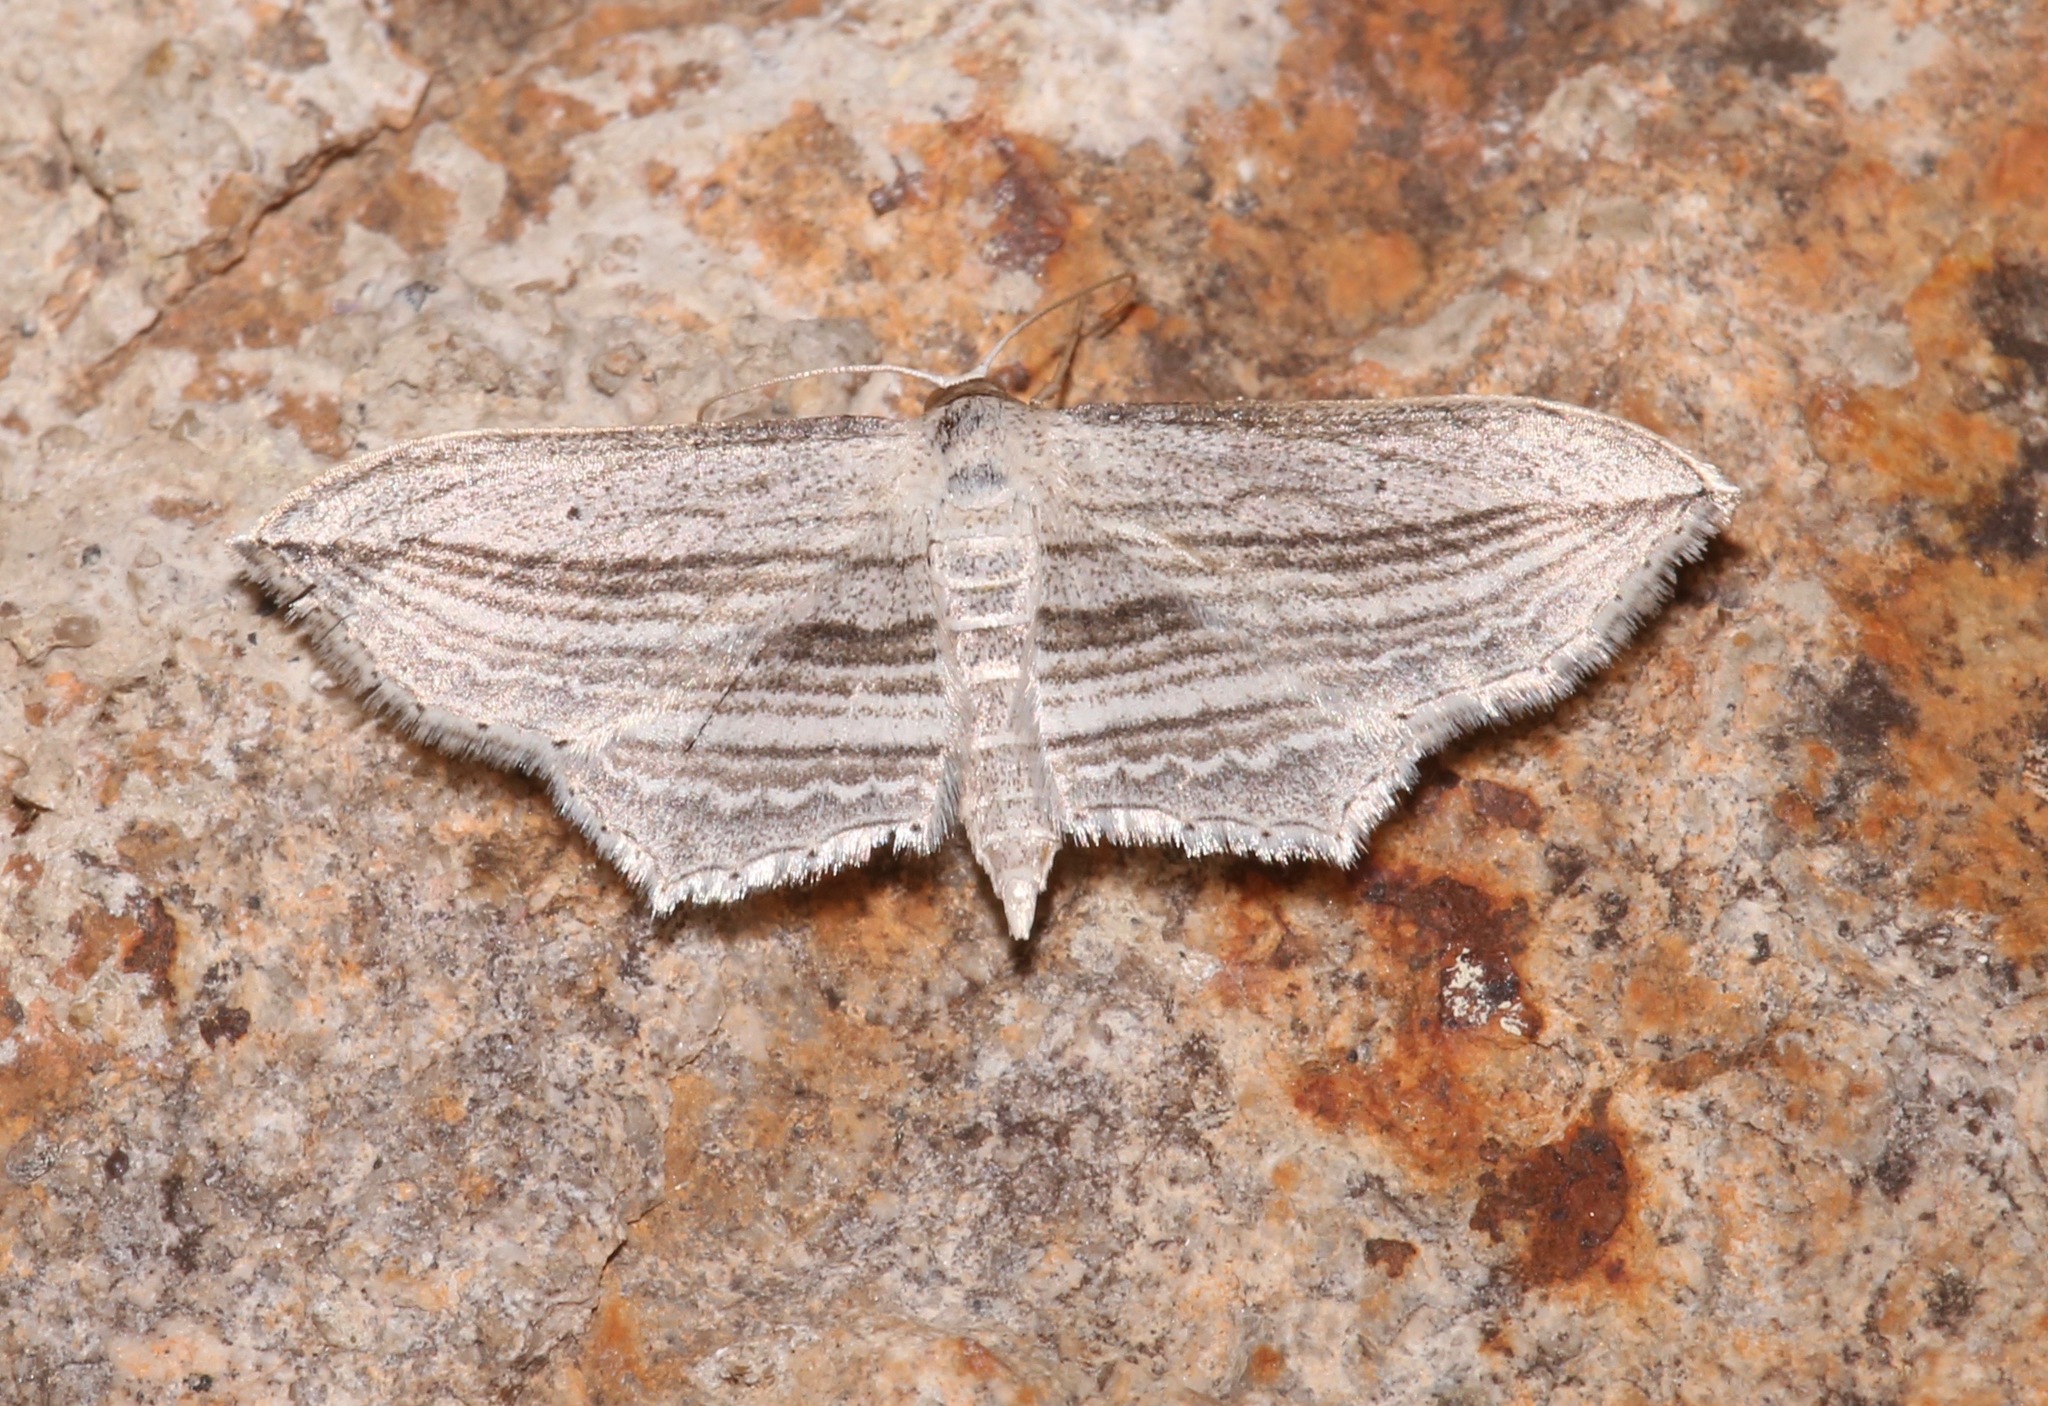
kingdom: Animalia
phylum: Arthropoda
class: Insecta
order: Lepidoptera
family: Geometridae
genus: Arcobara
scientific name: Arcobara multilineata
